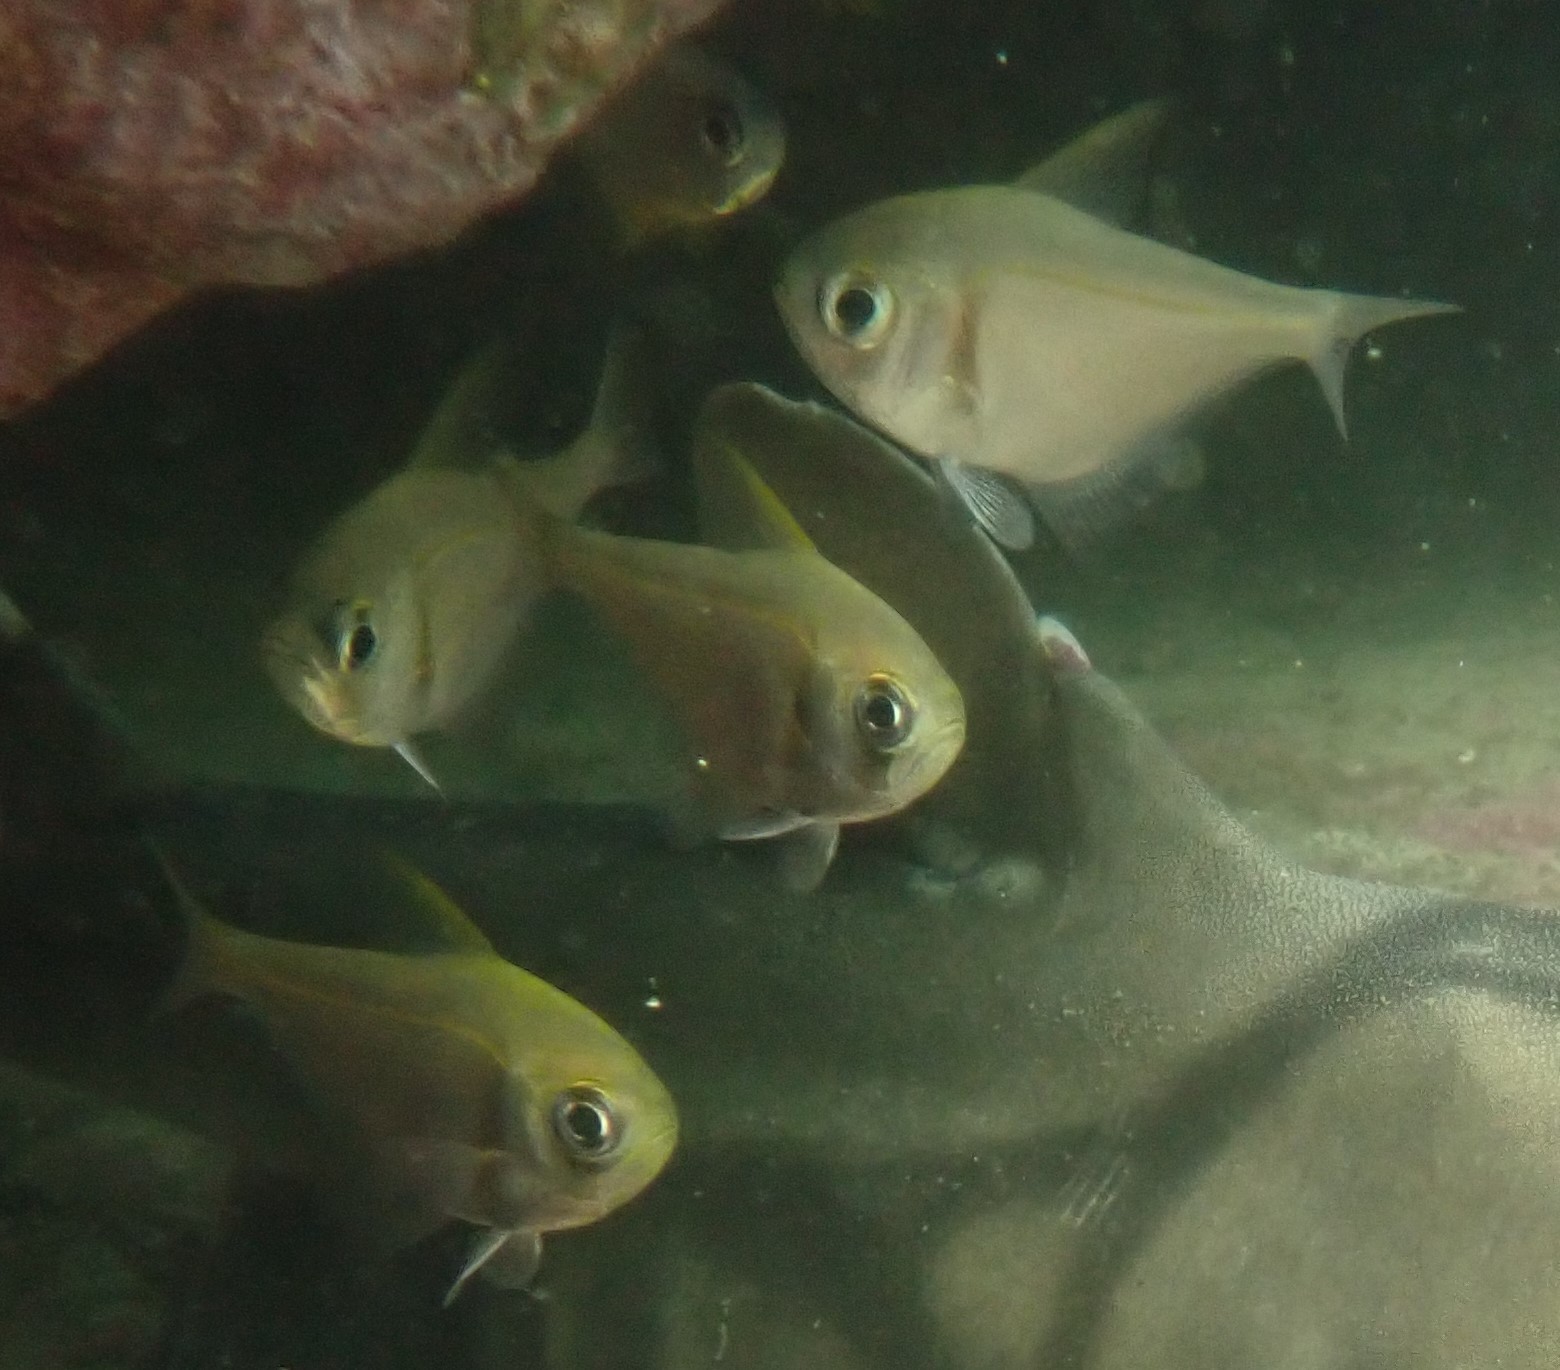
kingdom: Animalia
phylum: Chordata
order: Perciformes
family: Pempheridae
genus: Pempheris
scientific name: Pempheris compressa
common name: Bulleye
